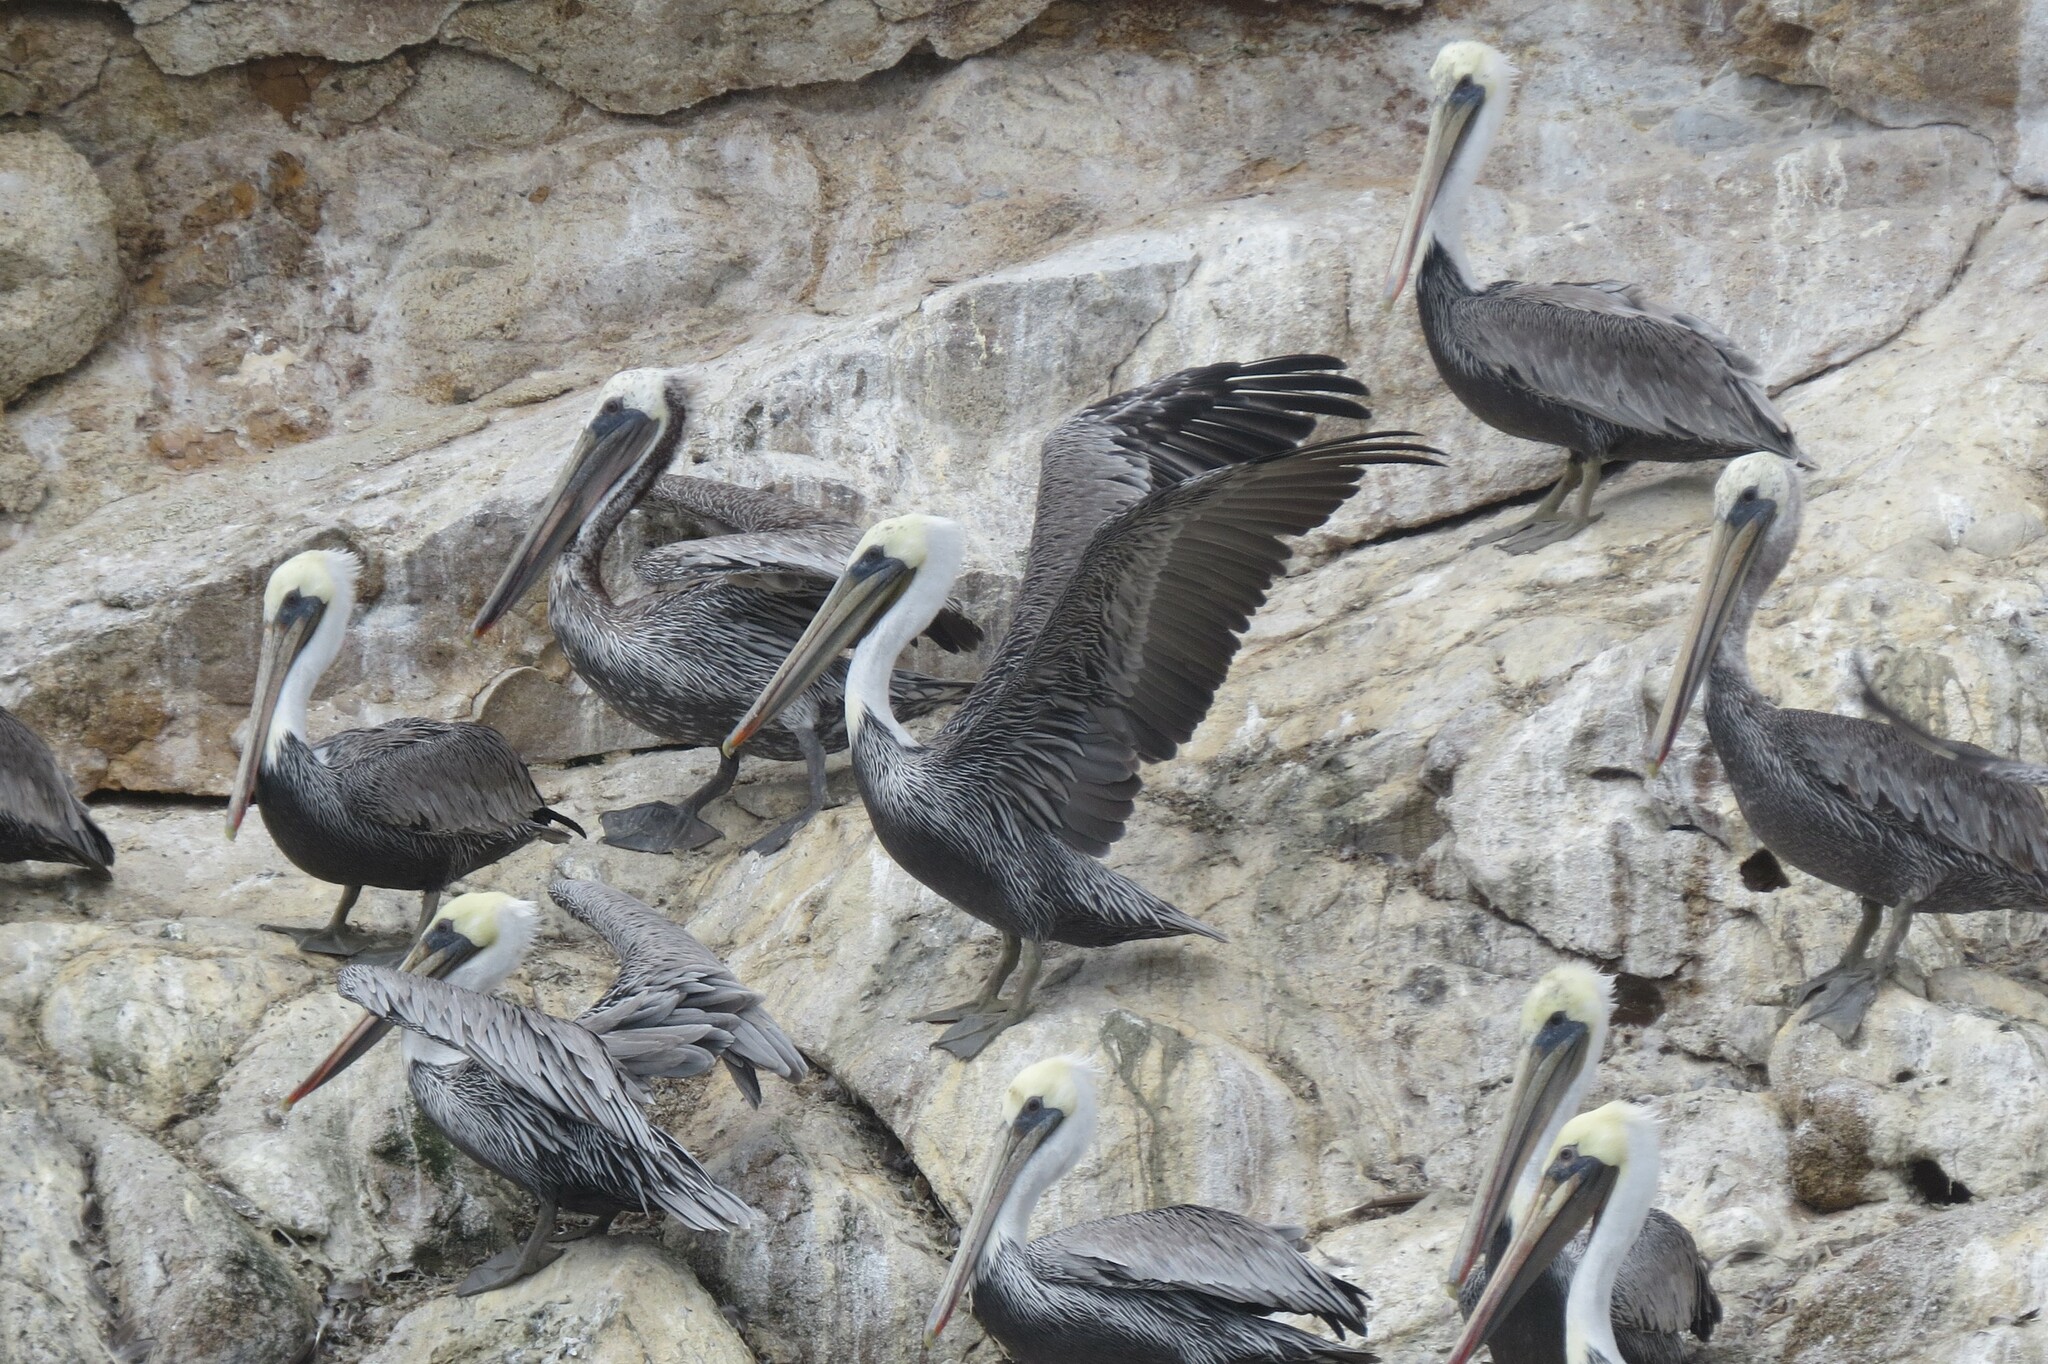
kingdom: Animalia
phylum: Chordata
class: Aves
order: Pelecaniformes
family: Pelecanidae
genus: Pelecanus
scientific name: Pelecanus occidentalis
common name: Brown pelican
